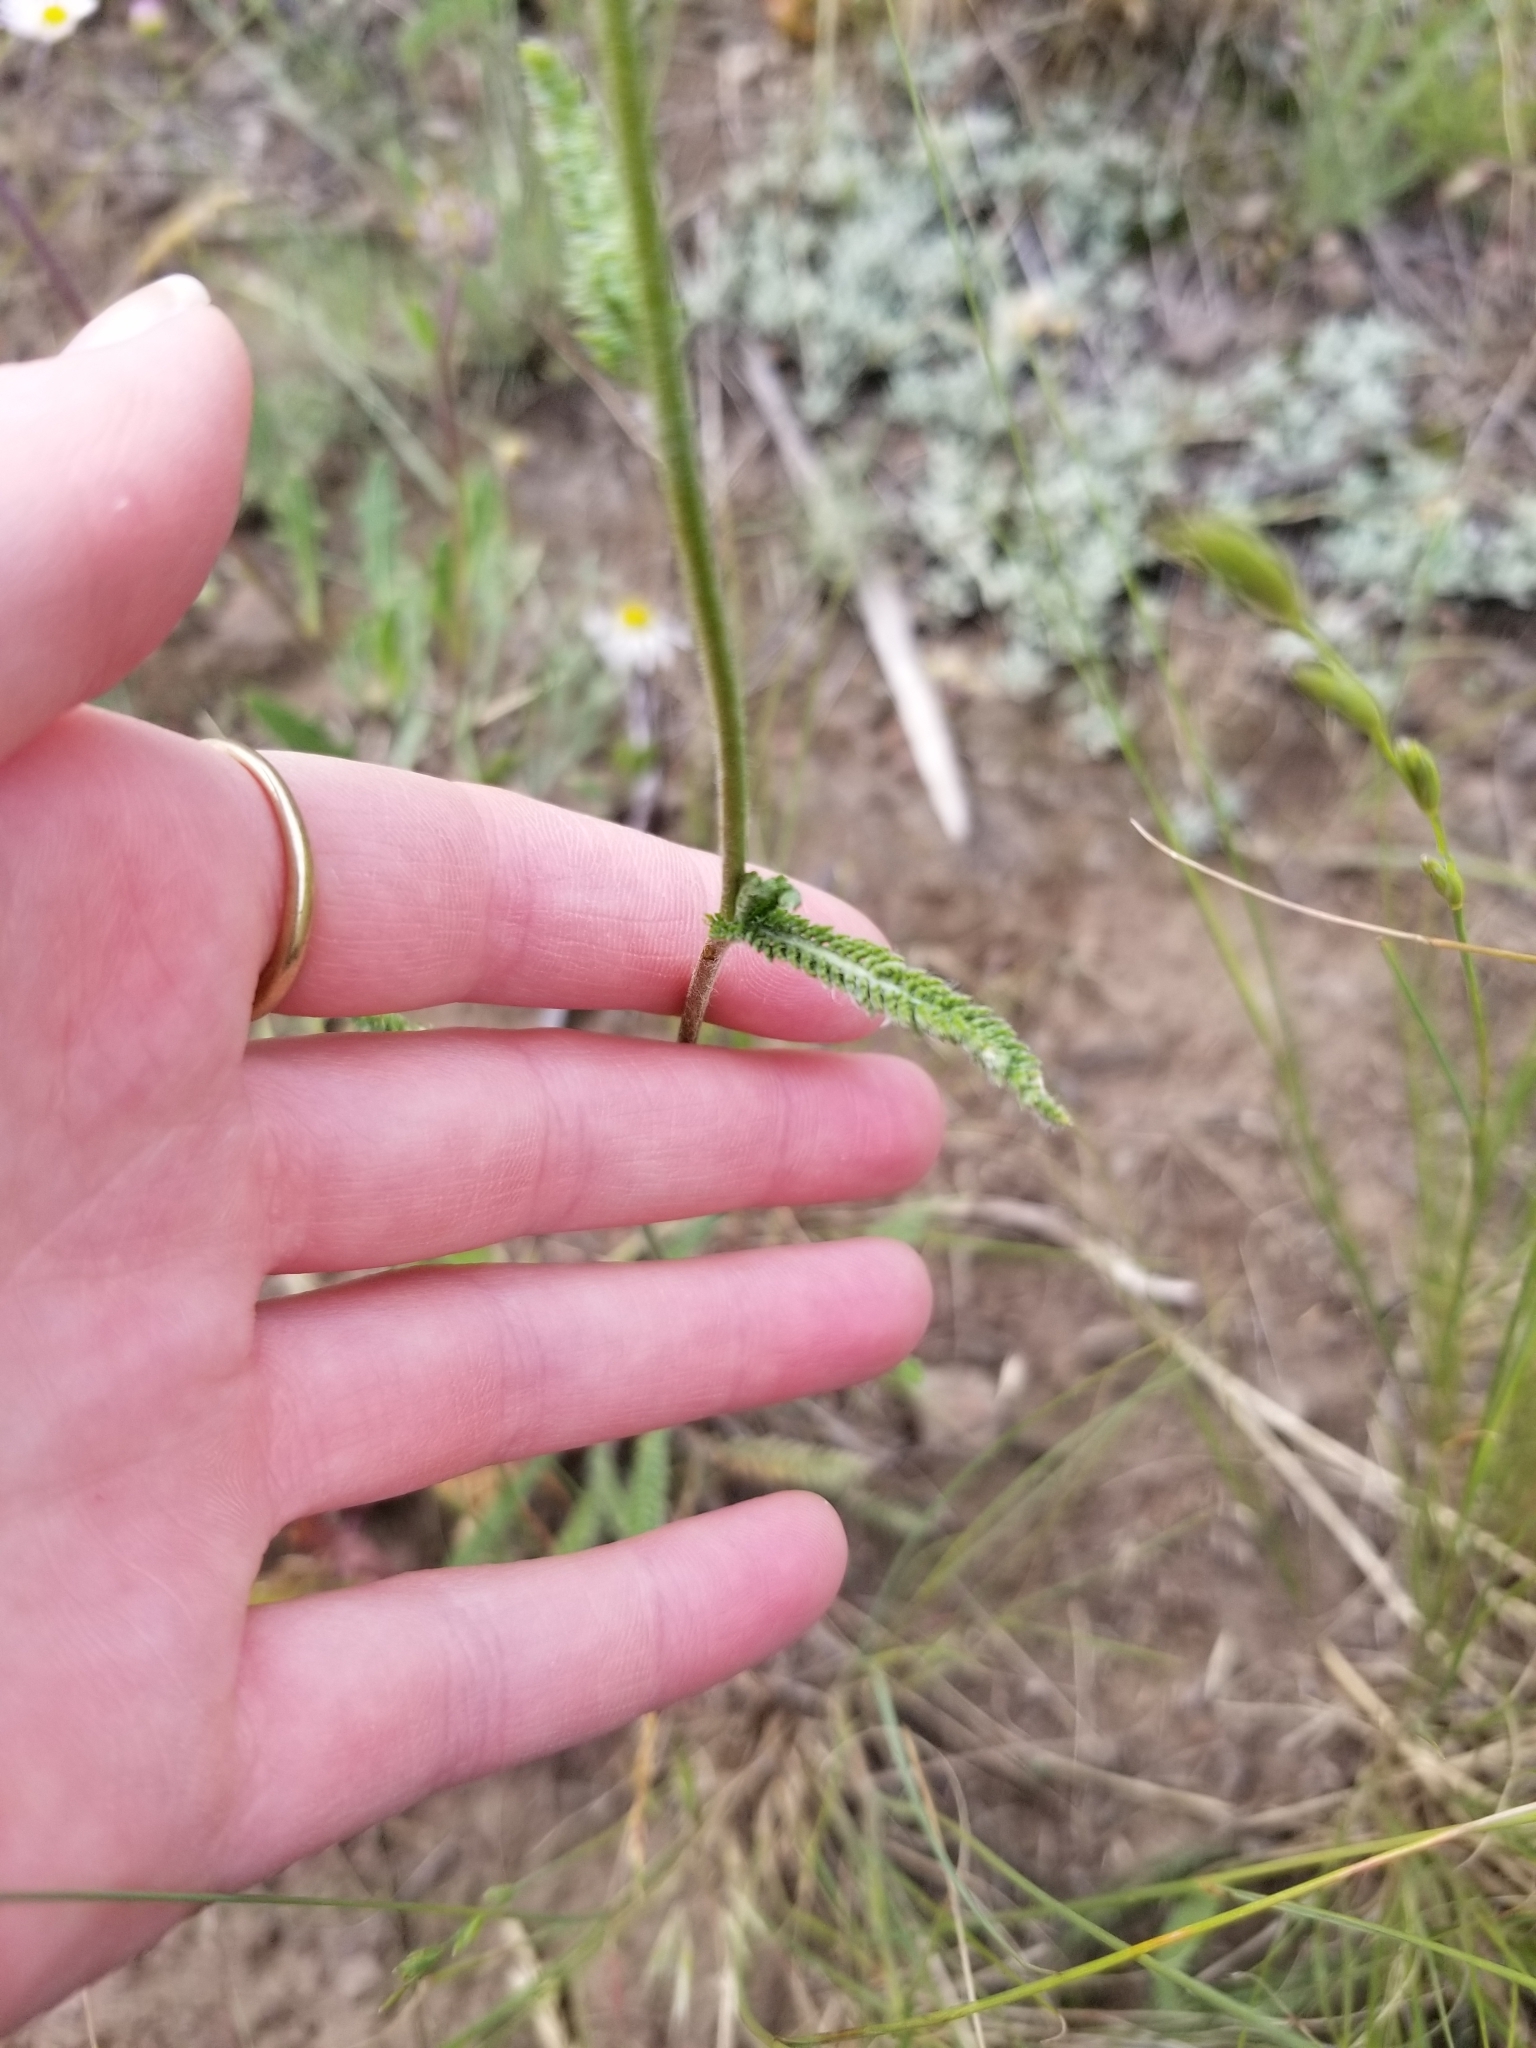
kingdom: Plantae
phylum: Tracheophyta
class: Magnoliopsida
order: Asterales
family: Asteraceae
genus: Achillea
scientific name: Achillea millefolium
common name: Yarrow
